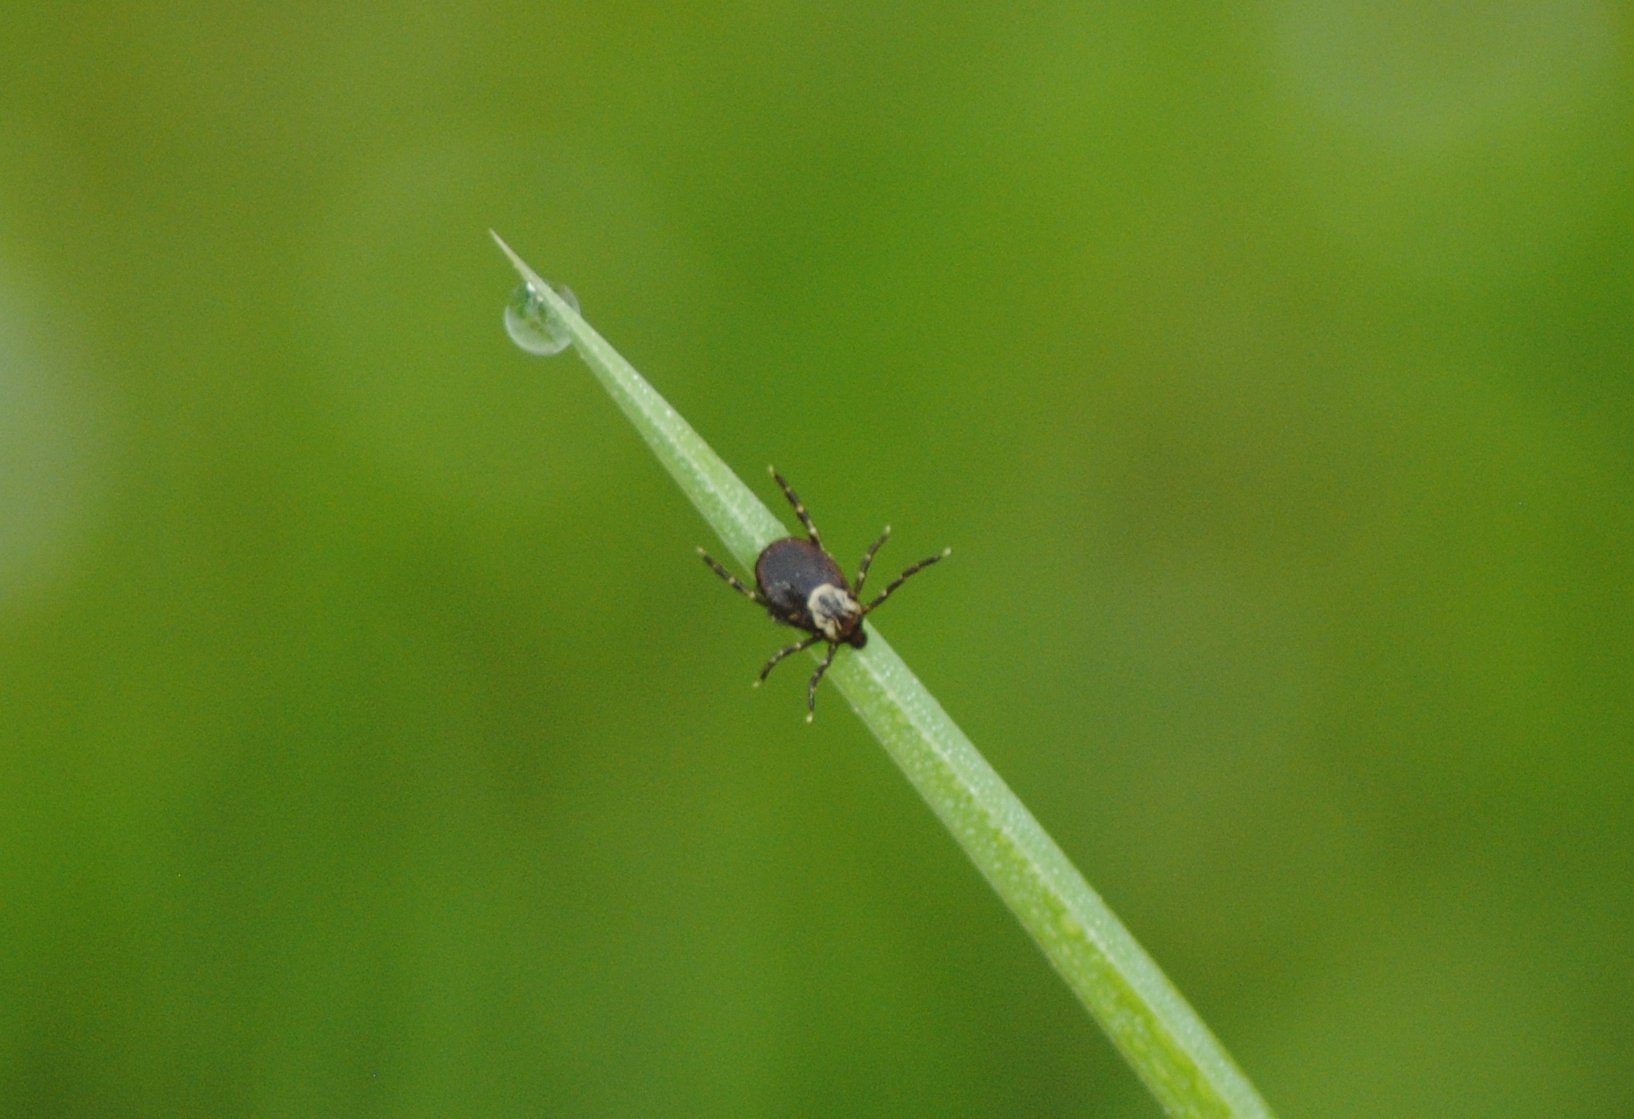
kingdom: Animalia
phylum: Arthropoda
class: Arachnida
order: Ixodida
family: Ixodidae
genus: Dermacentor
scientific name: Dermacentor variabilis
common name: American dog tick
